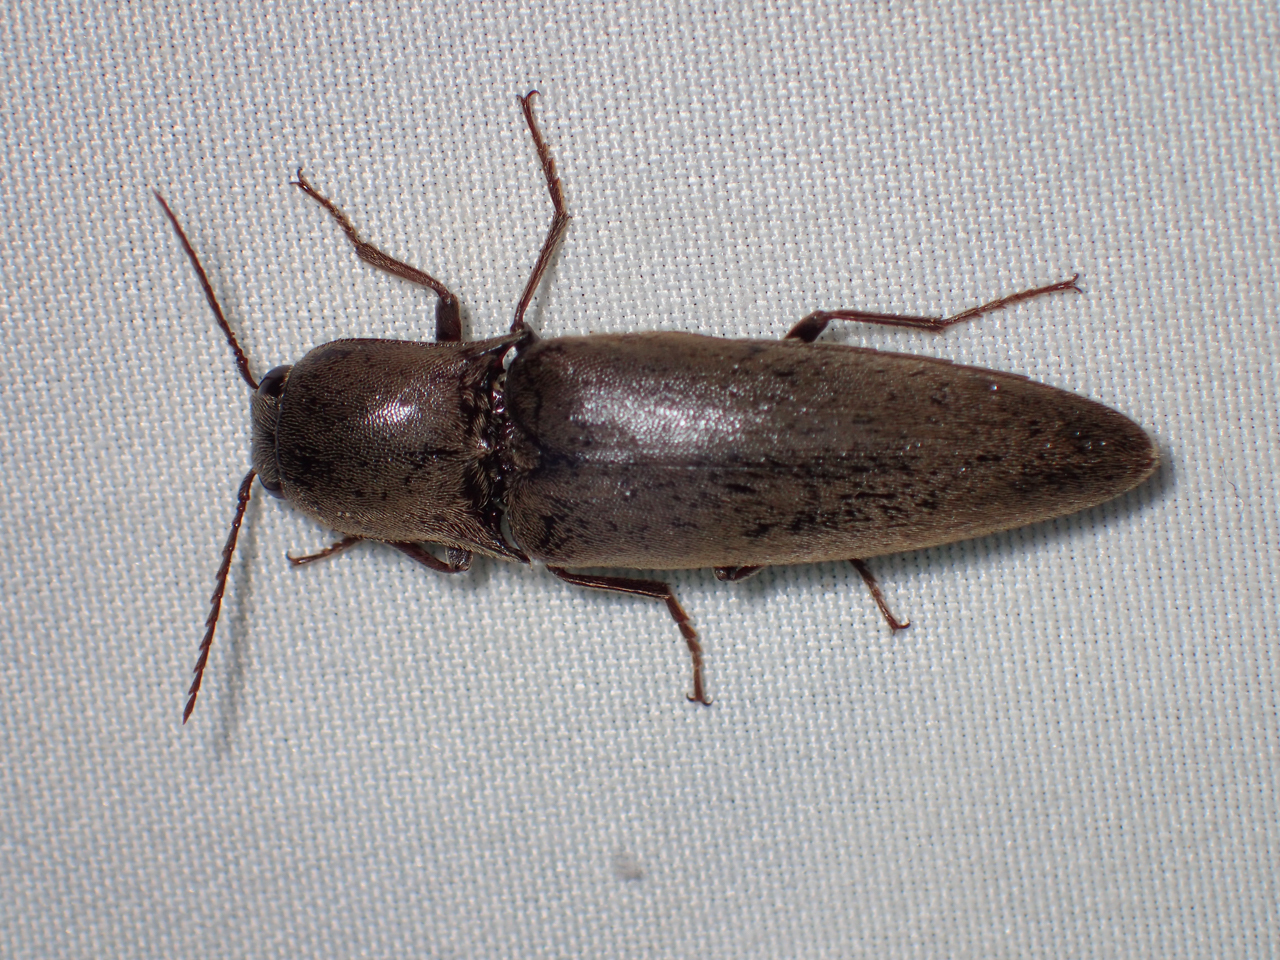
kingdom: Animalia
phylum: Arthropoda
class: Insecta
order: Coleoptera
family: Elateridae
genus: Orthostethus
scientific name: Orthostethus infuscatus
